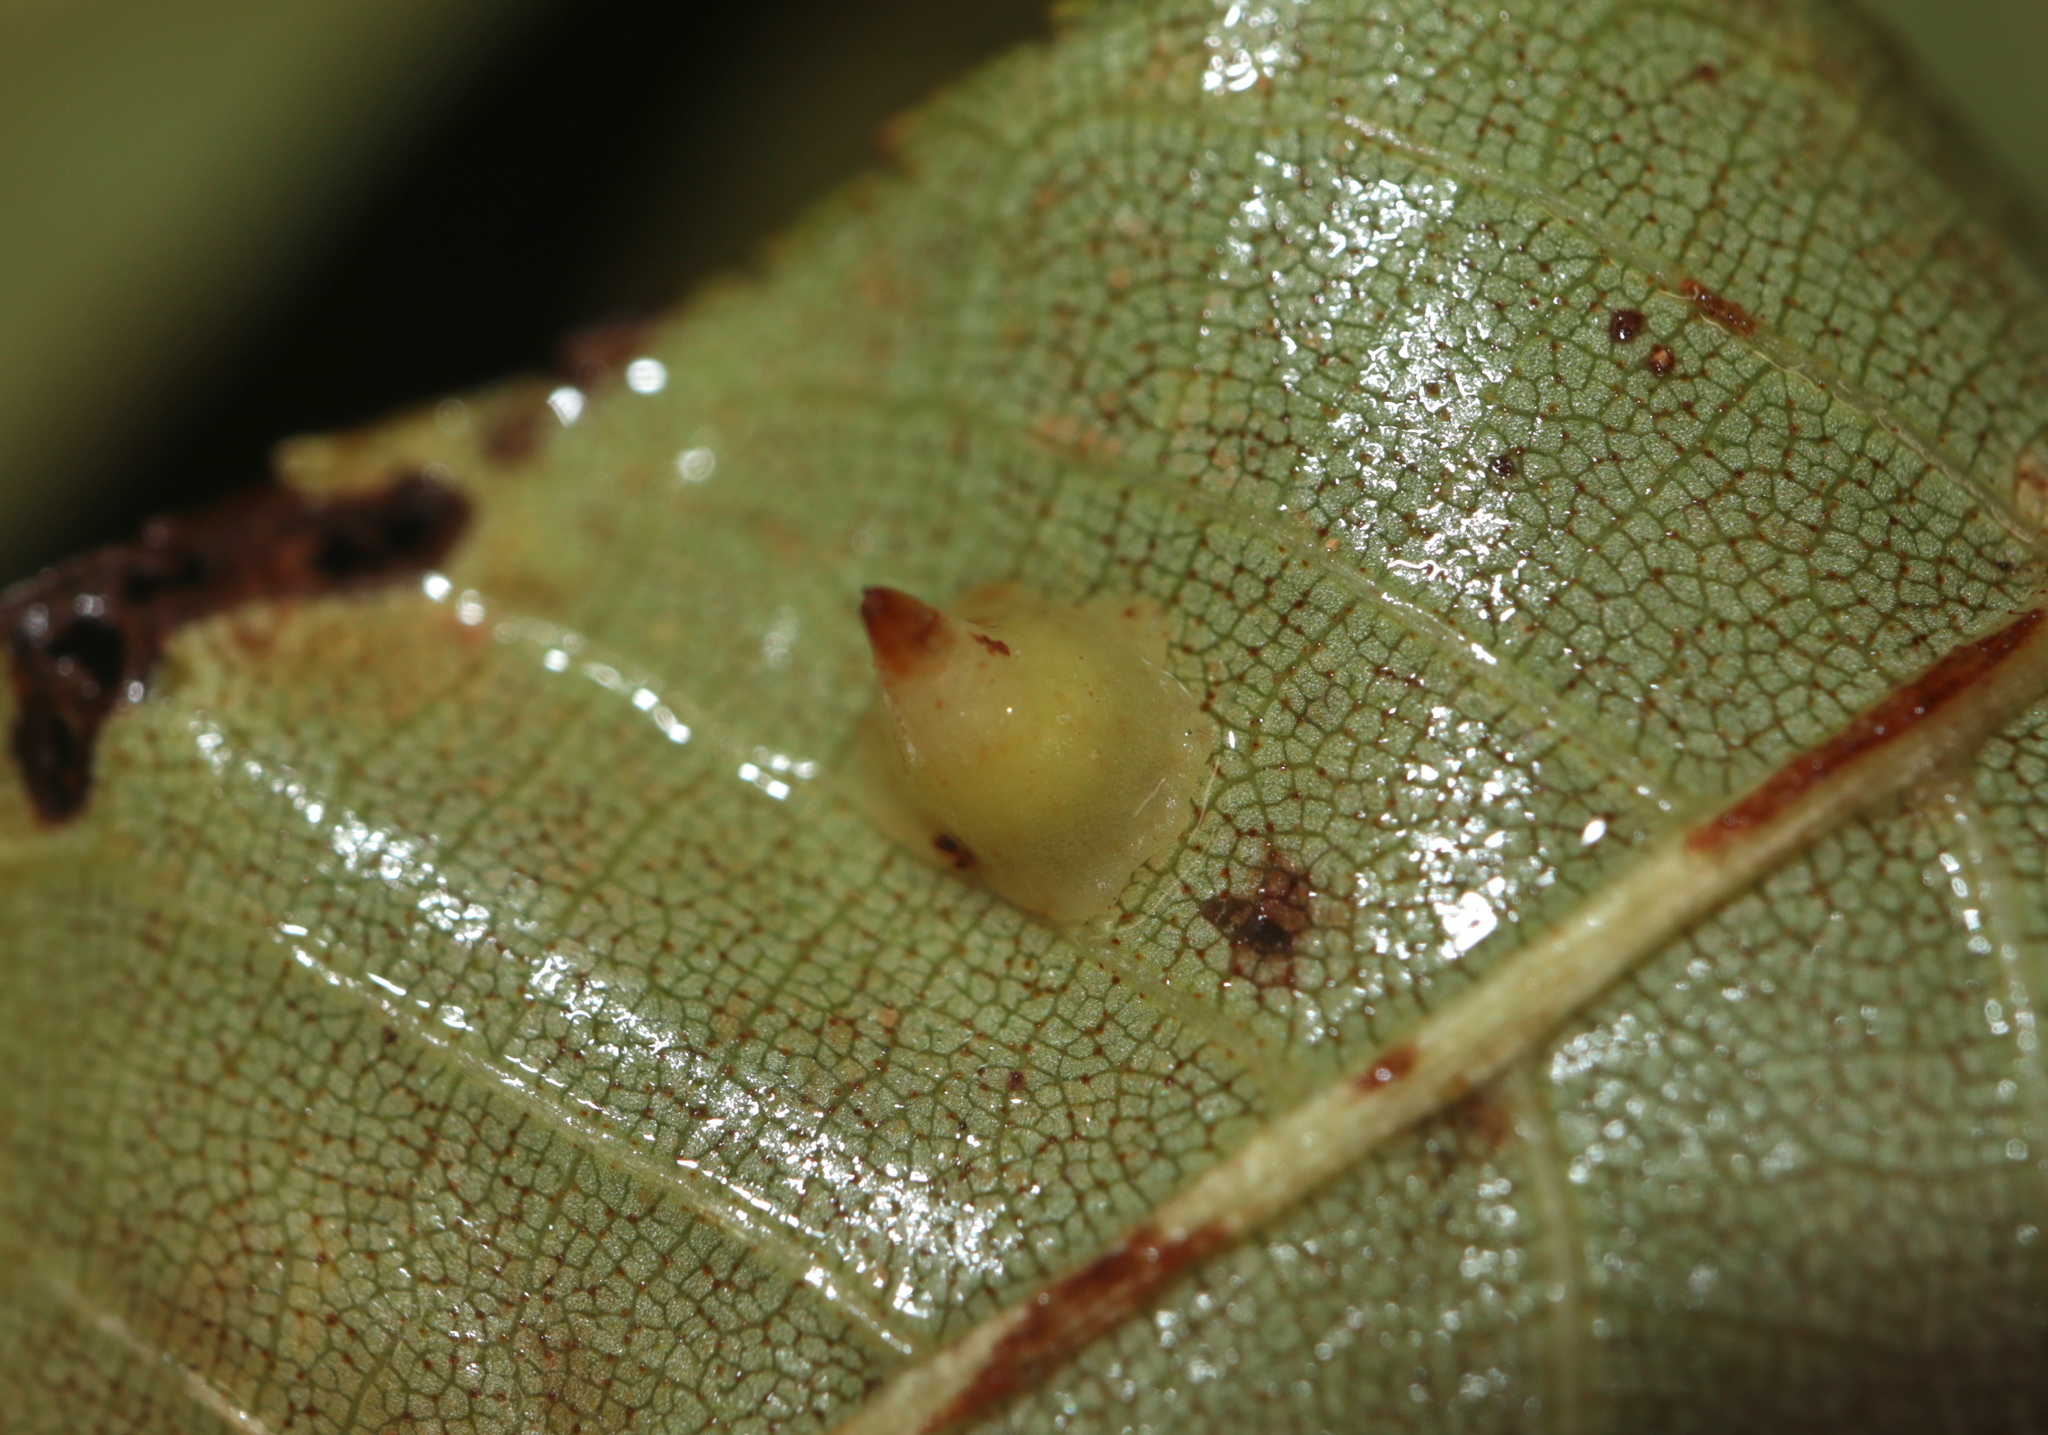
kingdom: Animalia
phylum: Arthropoda
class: Insecta
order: Diptera
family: Cecidomyiidae
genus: Caryomyia
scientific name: Caryomyia sanguinolenta
